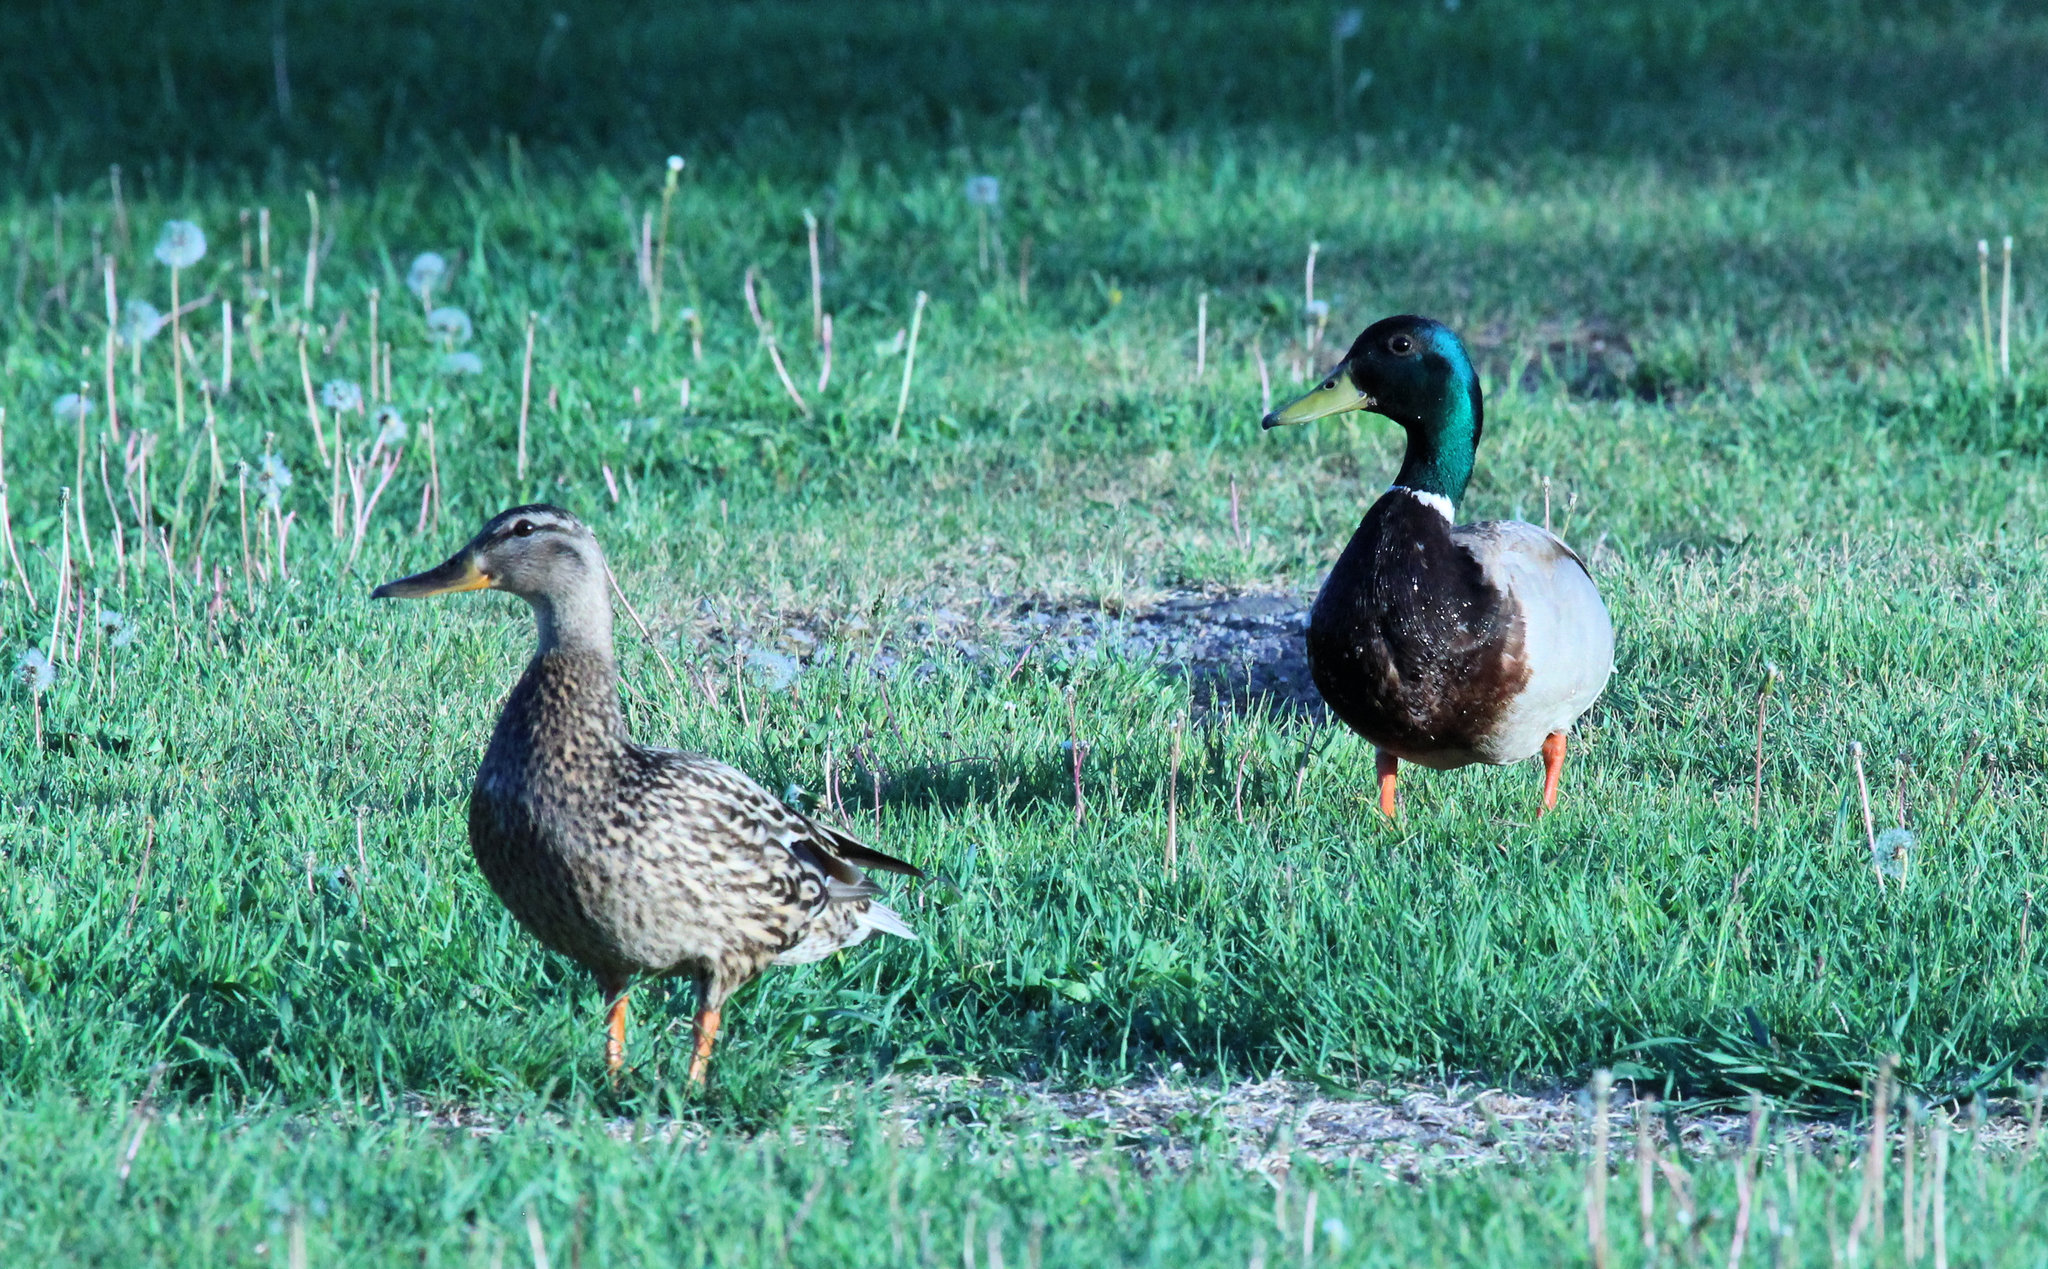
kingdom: Animalia
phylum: Chordata
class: Aves
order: Anseriformes
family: Anatidae
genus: Anas
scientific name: Anas platyrhynchos
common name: Mallard
